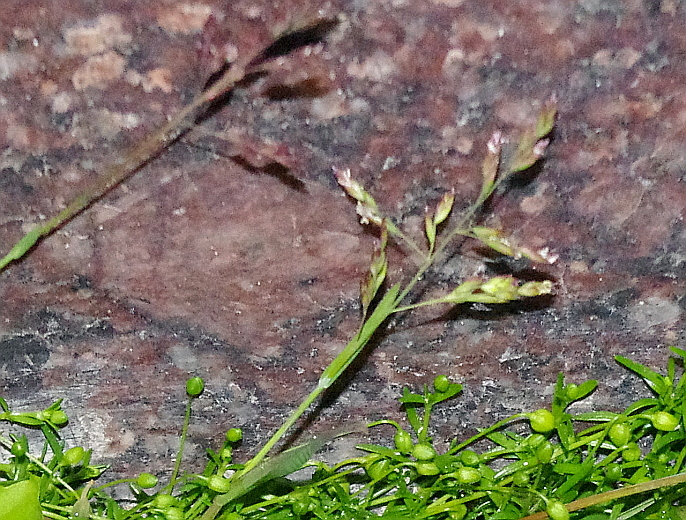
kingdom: Plantae
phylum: Tracheophyta
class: Liliopsida
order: Poales
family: Poaceae
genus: Poa
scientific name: Poa annua
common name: Annual bluegrass
